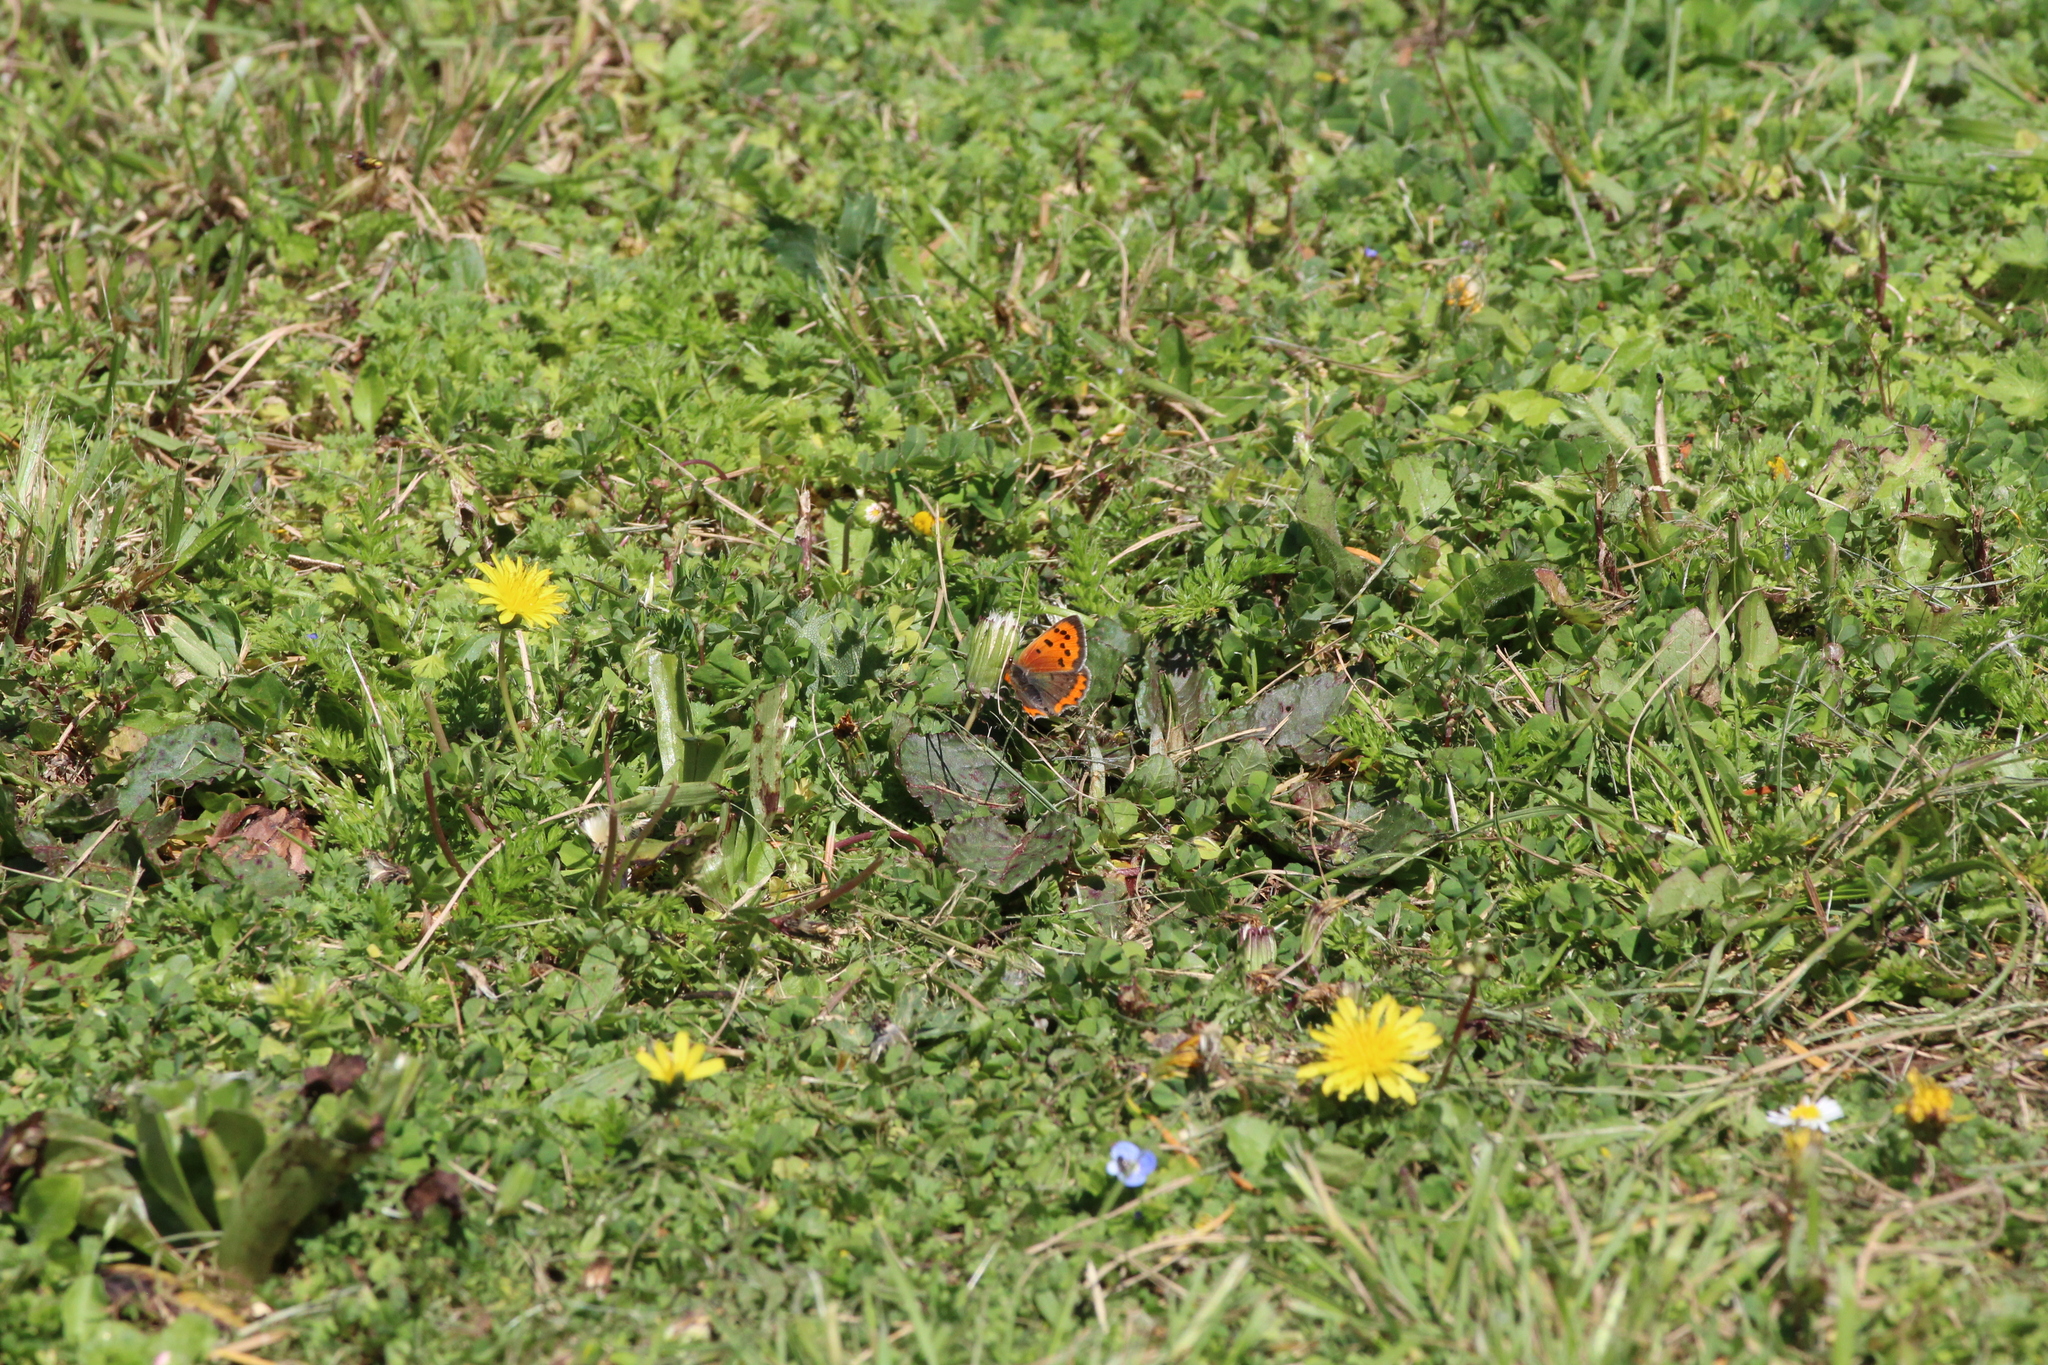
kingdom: Animalia
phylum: Arthropoda
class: Insecta
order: Lepidoptera
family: Lycaenidae
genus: Lycaena
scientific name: Lycaena phlaeas
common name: Small copper
